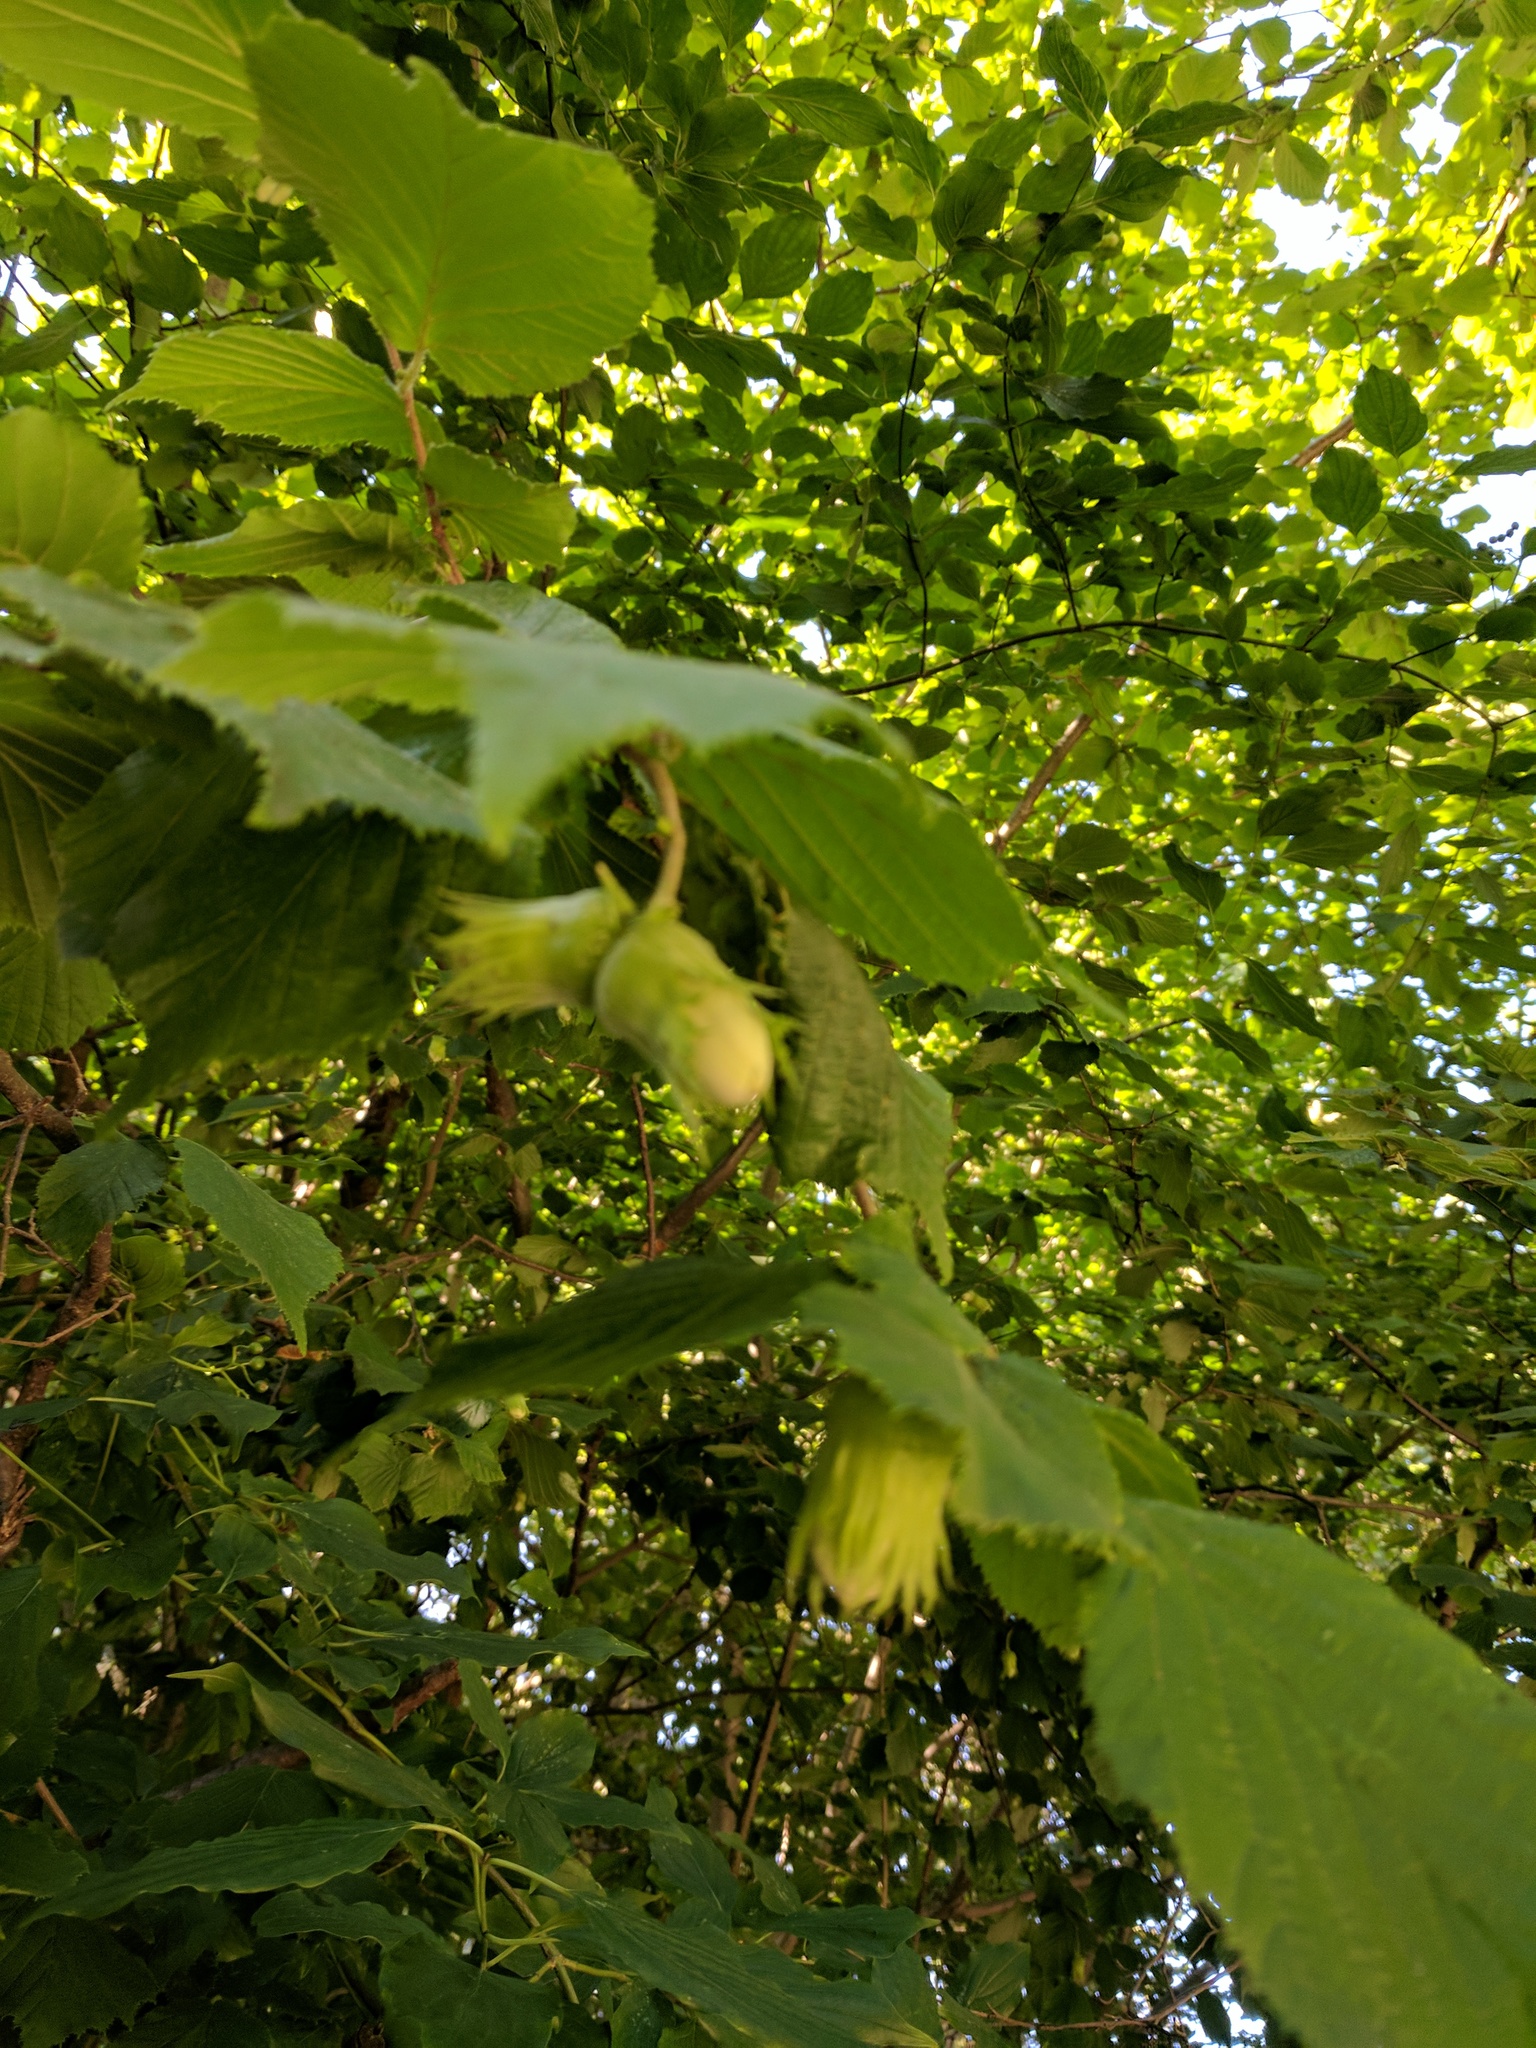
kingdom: Plantae
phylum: Tracheophyta
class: Magnoliopsida
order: Fagales
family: Betulaceae
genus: Corylus
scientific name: Corylus avellana
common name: European hazel
